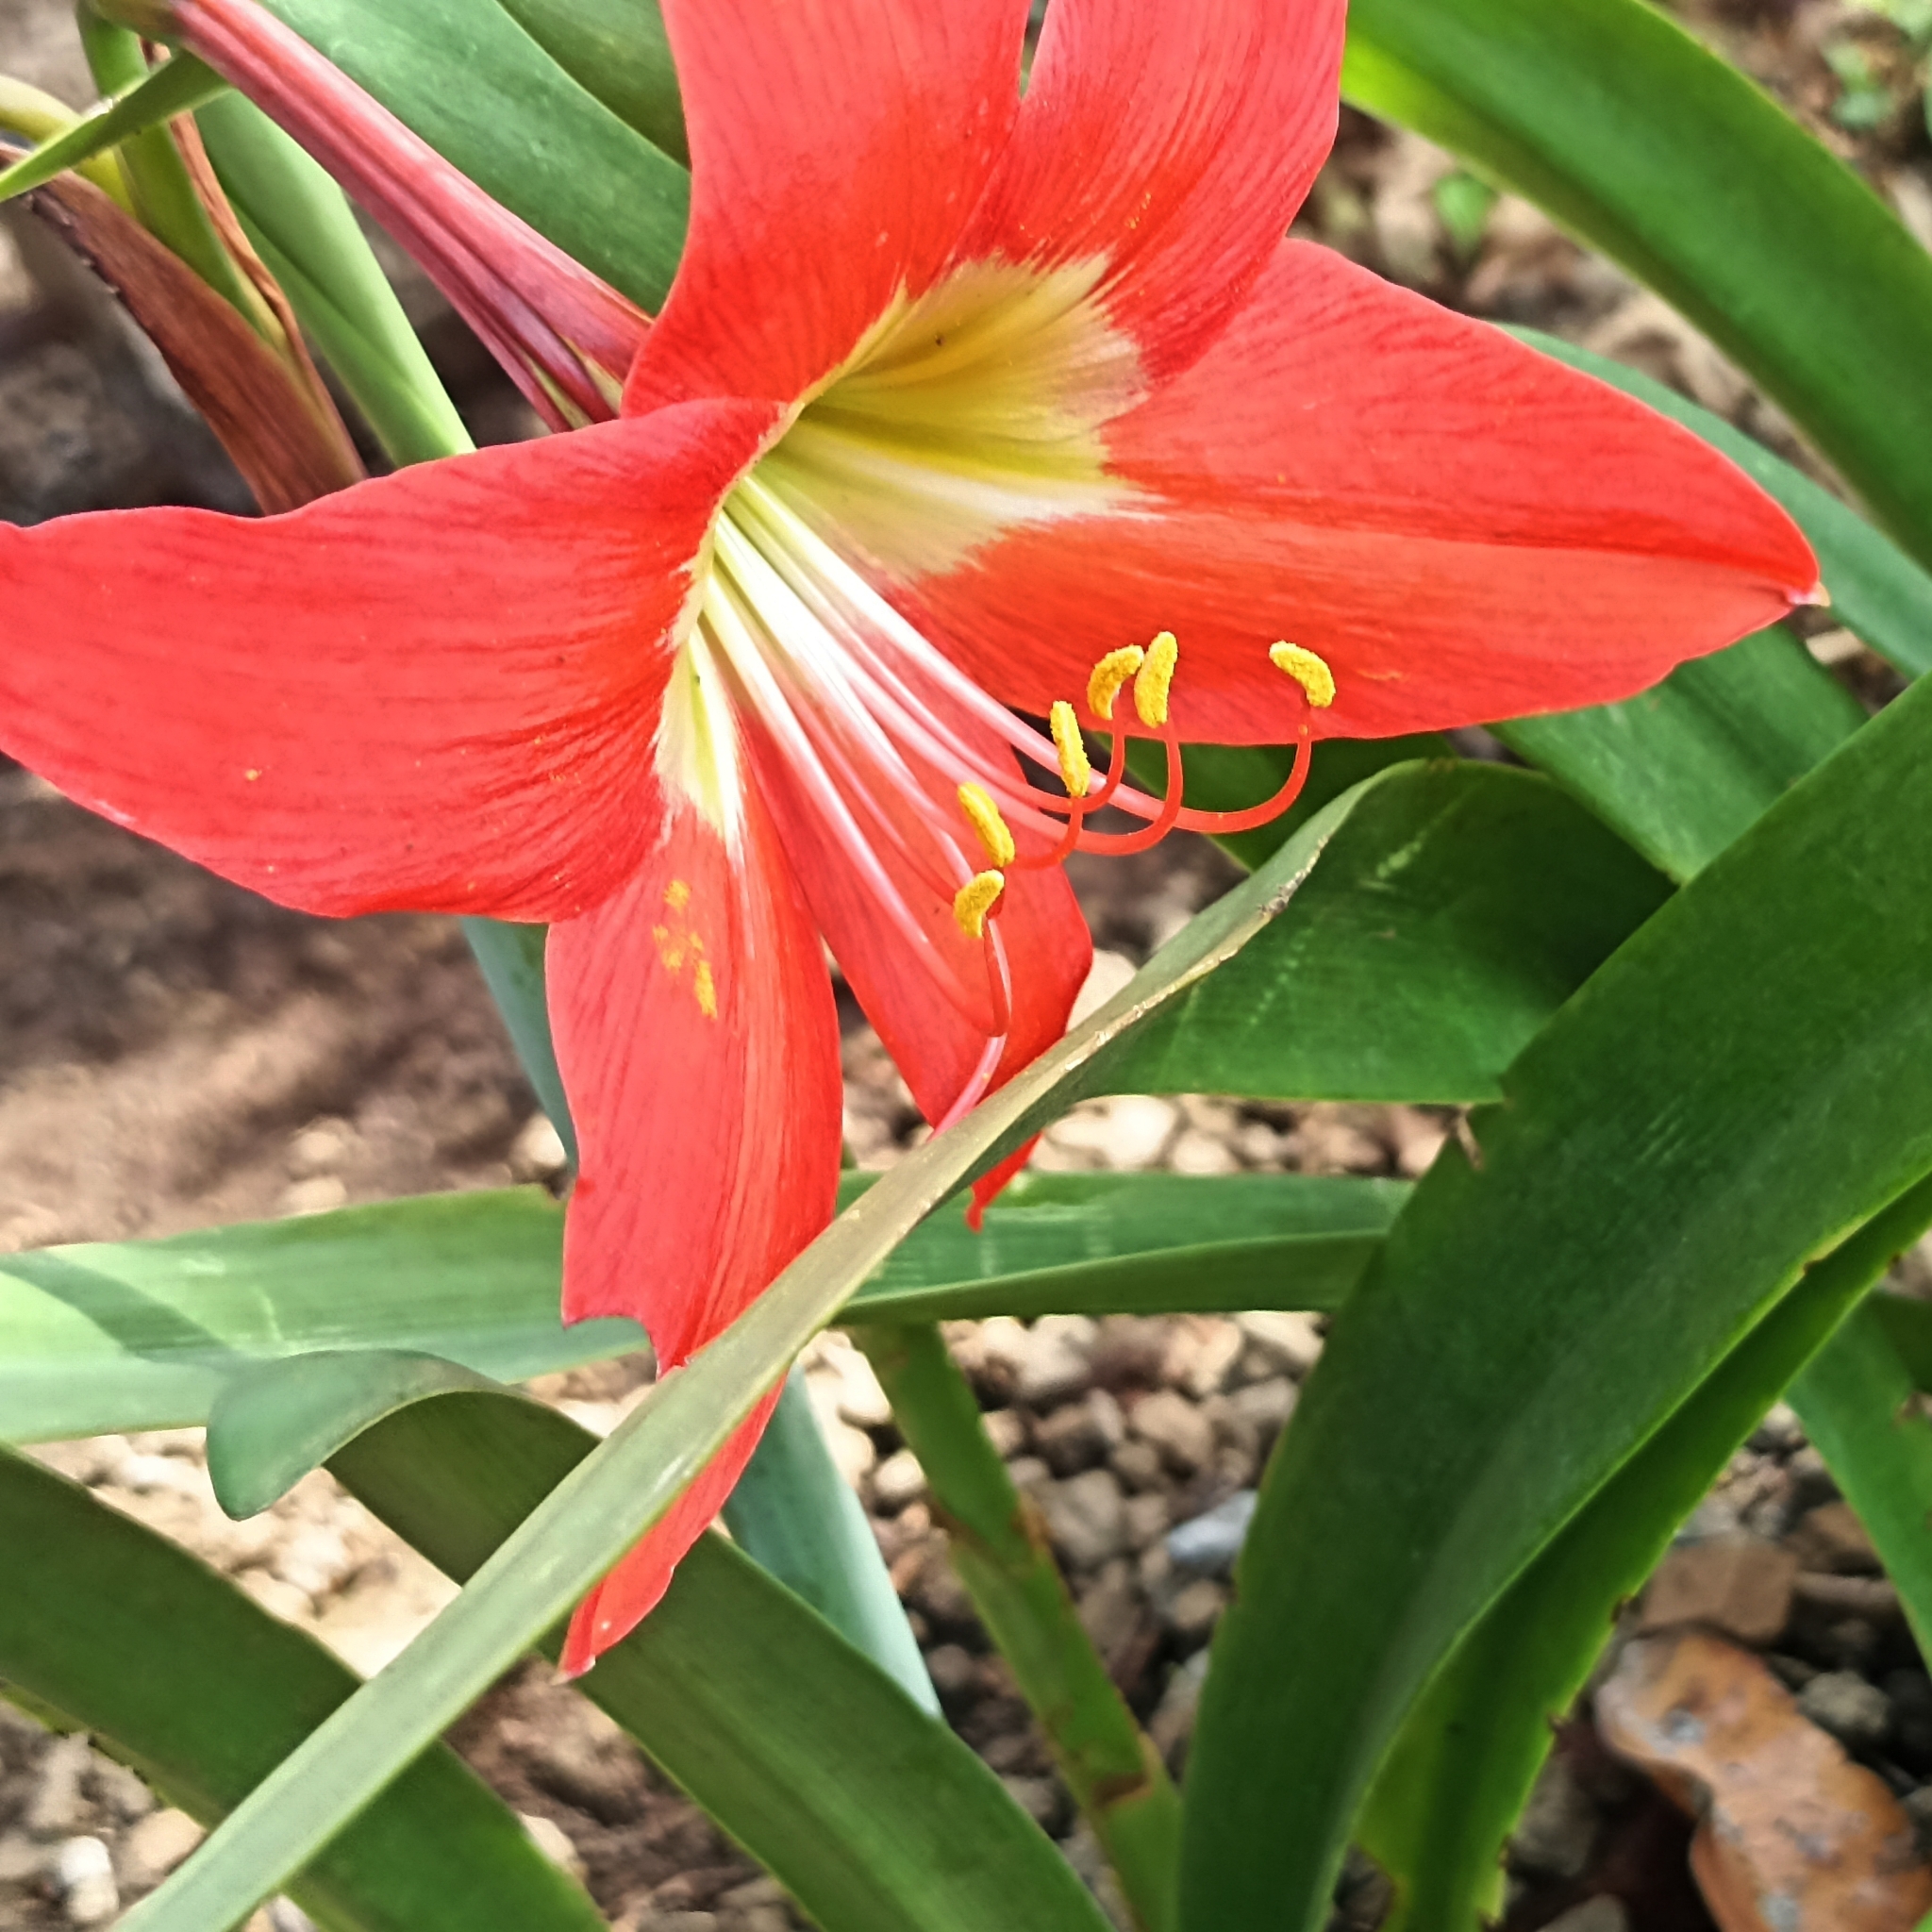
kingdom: Plantae
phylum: Tracheophyta
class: Liliopsida
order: Asparagales
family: Amaryllidaceae
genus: Hippeastrum
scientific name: Hippeastrum puniceum
